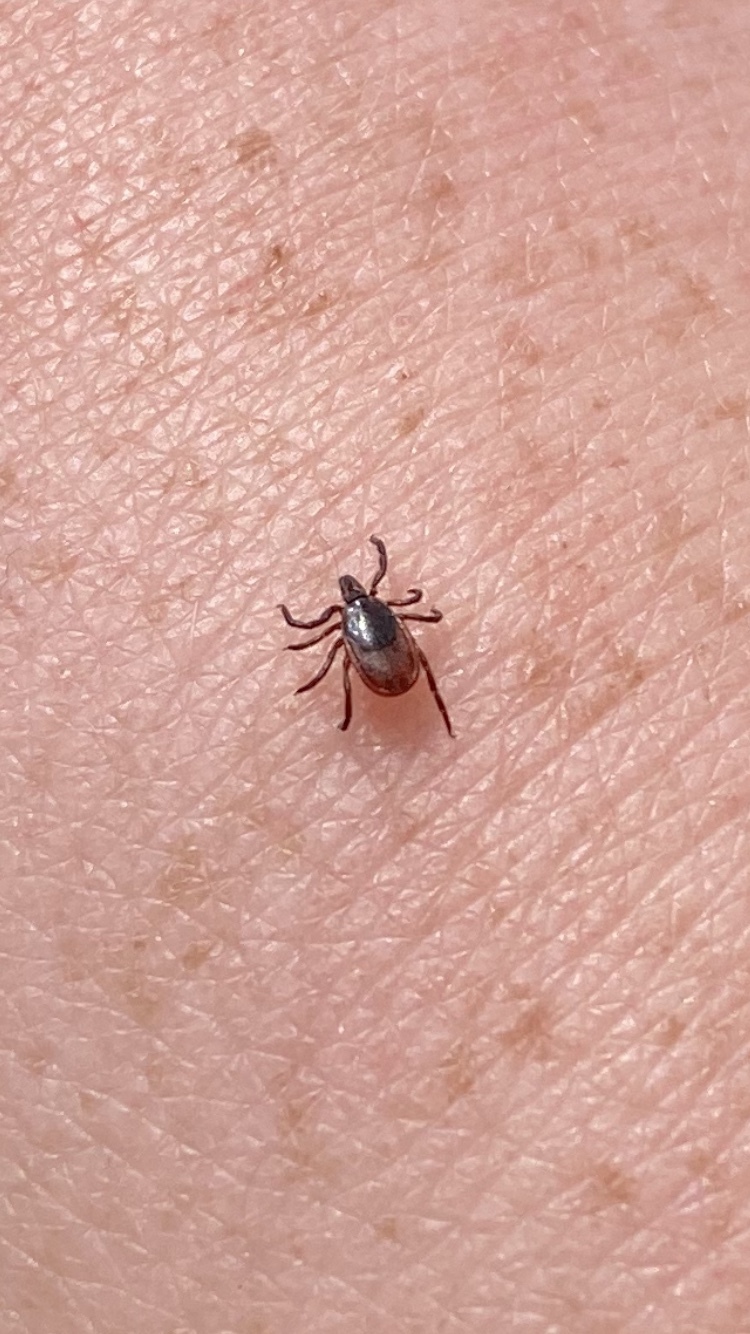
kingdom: Animalia
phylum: Arthropoda
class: Arachnida
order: Ixodida
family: Ixodidae
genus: Ixodes
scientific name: Ixodes scapularis
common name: Black legged tick
